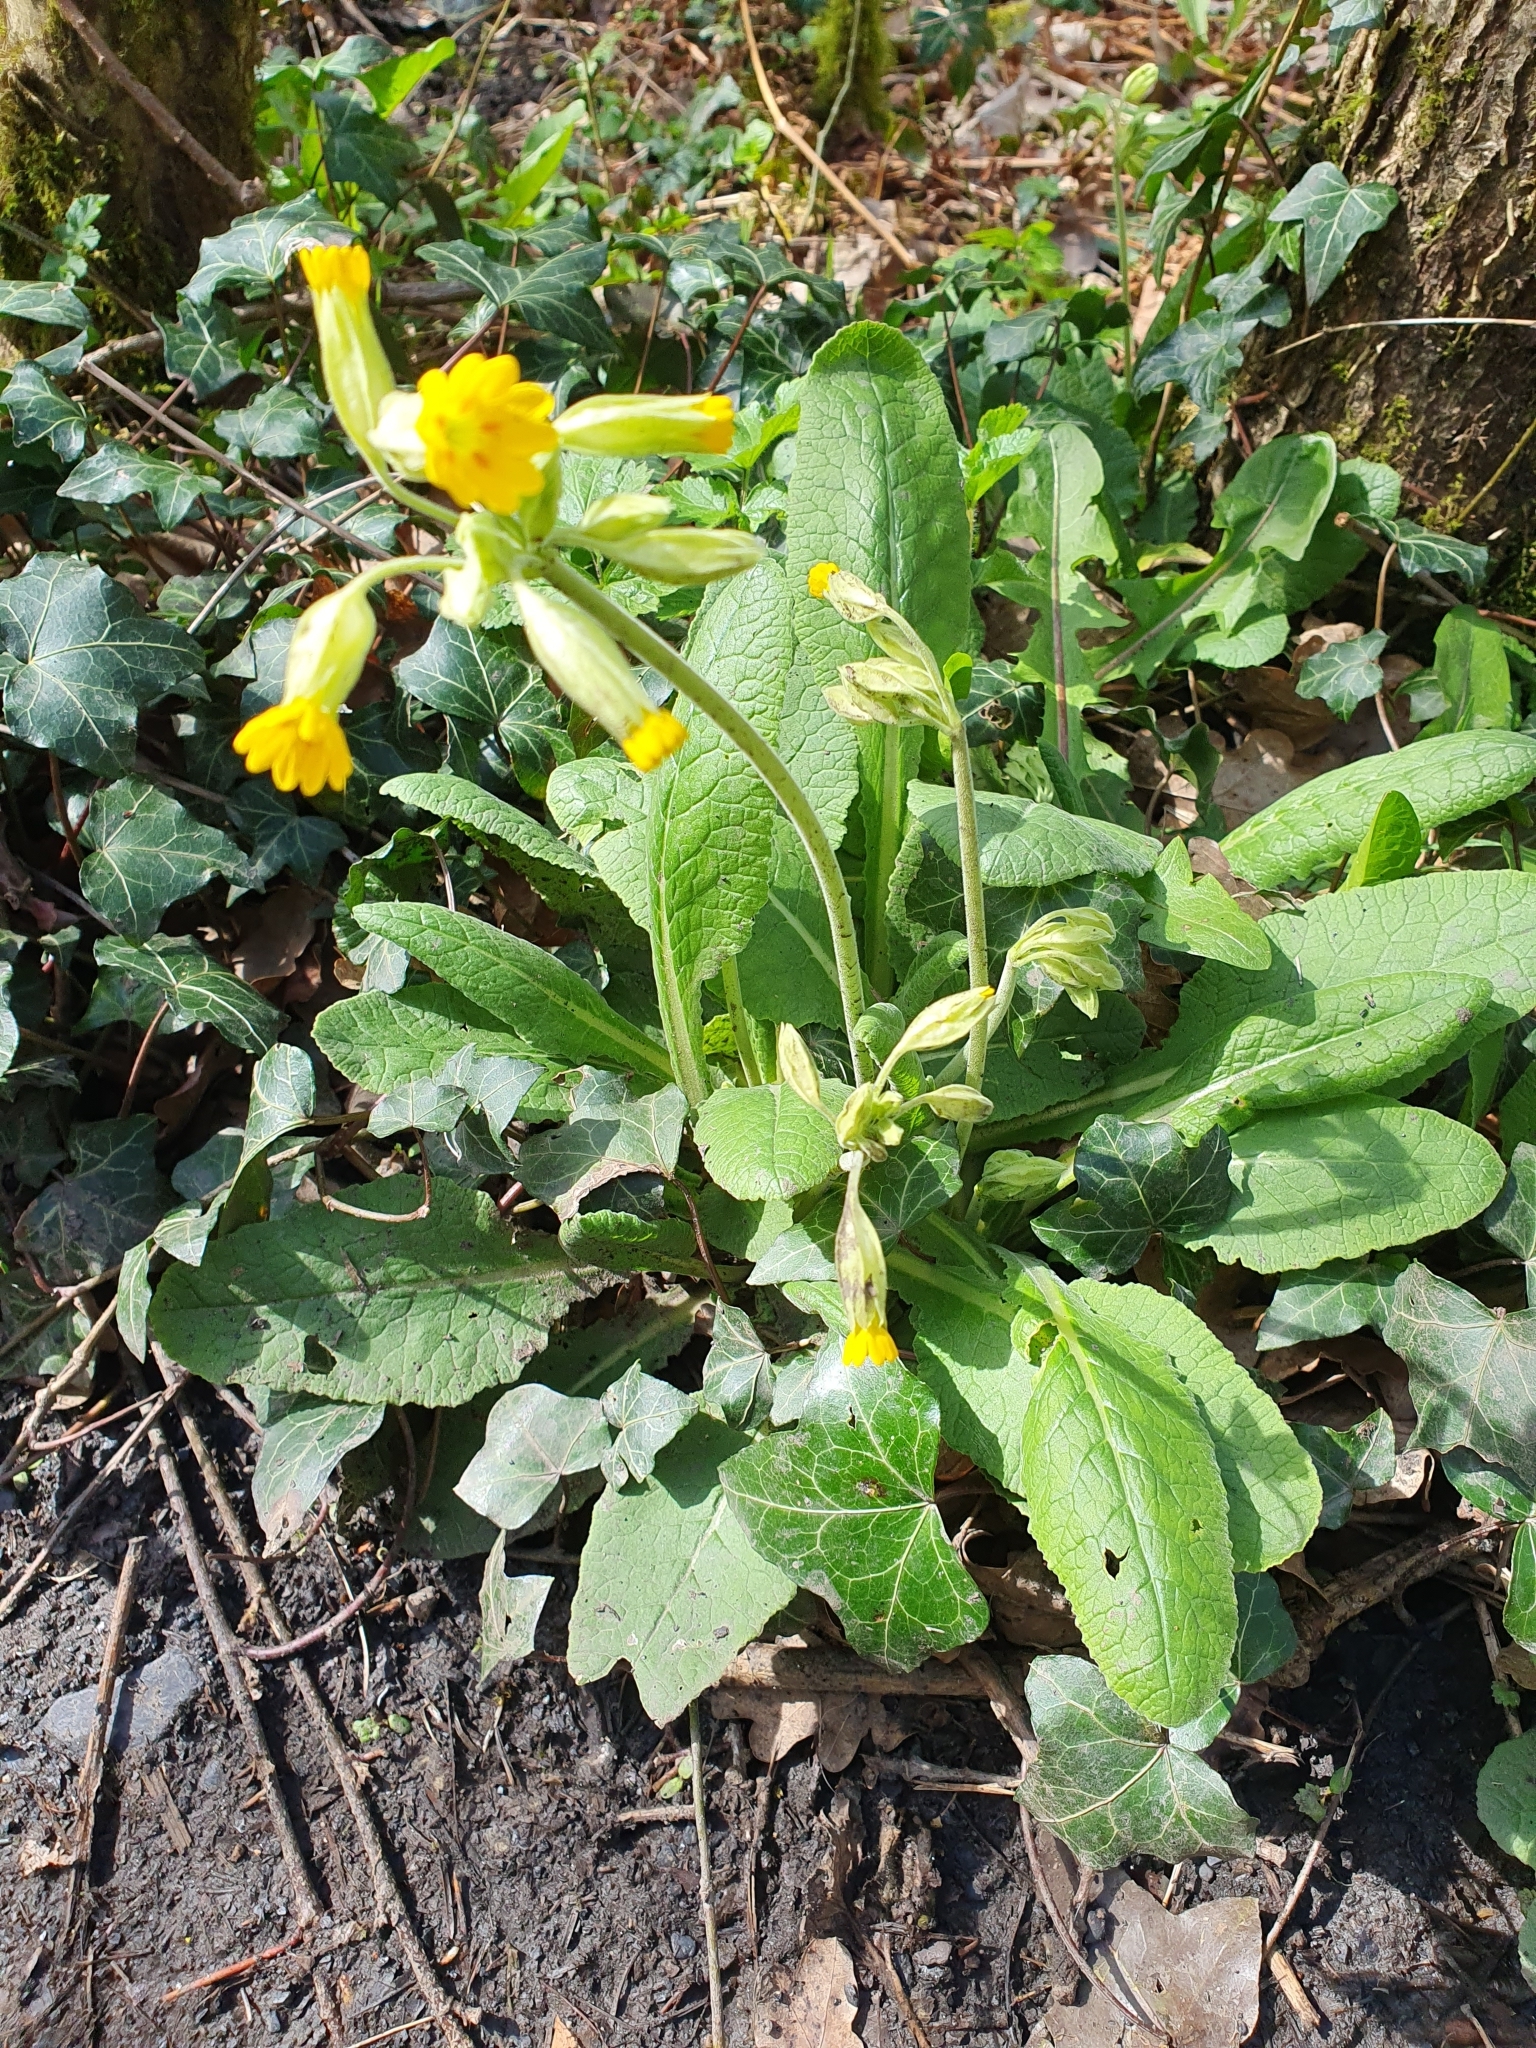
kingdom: Plantae
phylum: Tracheophyta
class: Magnoliopsida
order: Ericales
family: Primulaceae
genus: Primula
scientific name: Primula veris
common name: Cowslip
